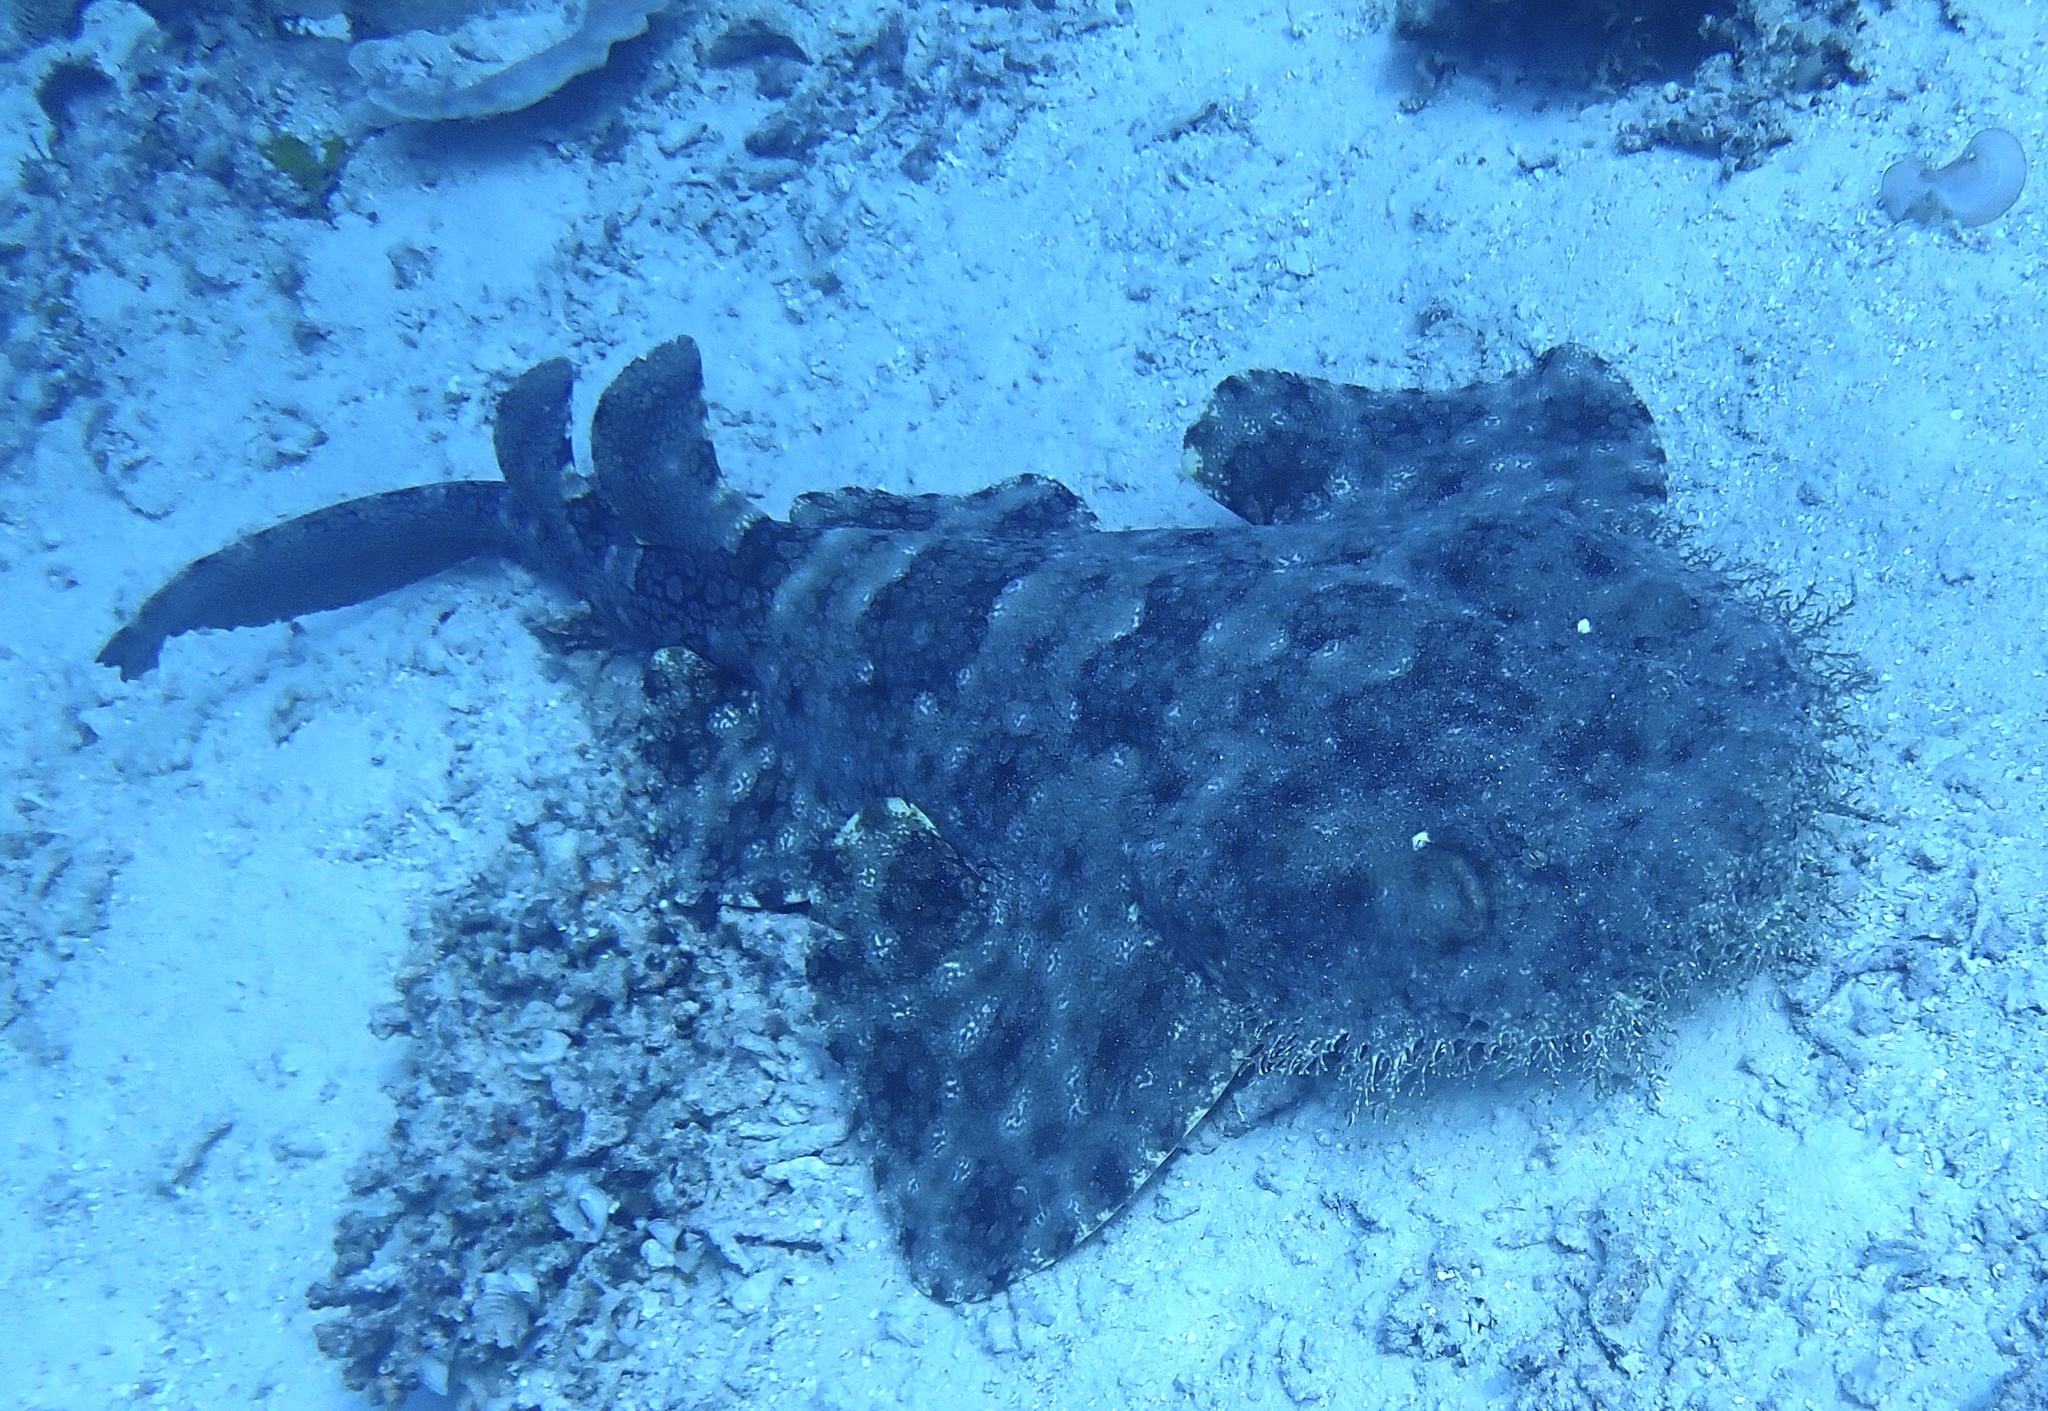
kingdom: Animalia
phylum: Chordata
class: Elasmobranchii
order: Orectolobiformes
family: Orectolobidae
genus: Eucrossorhinus
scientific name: Eucrossorhinus dasypogon
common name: Tasselled wobbegong
